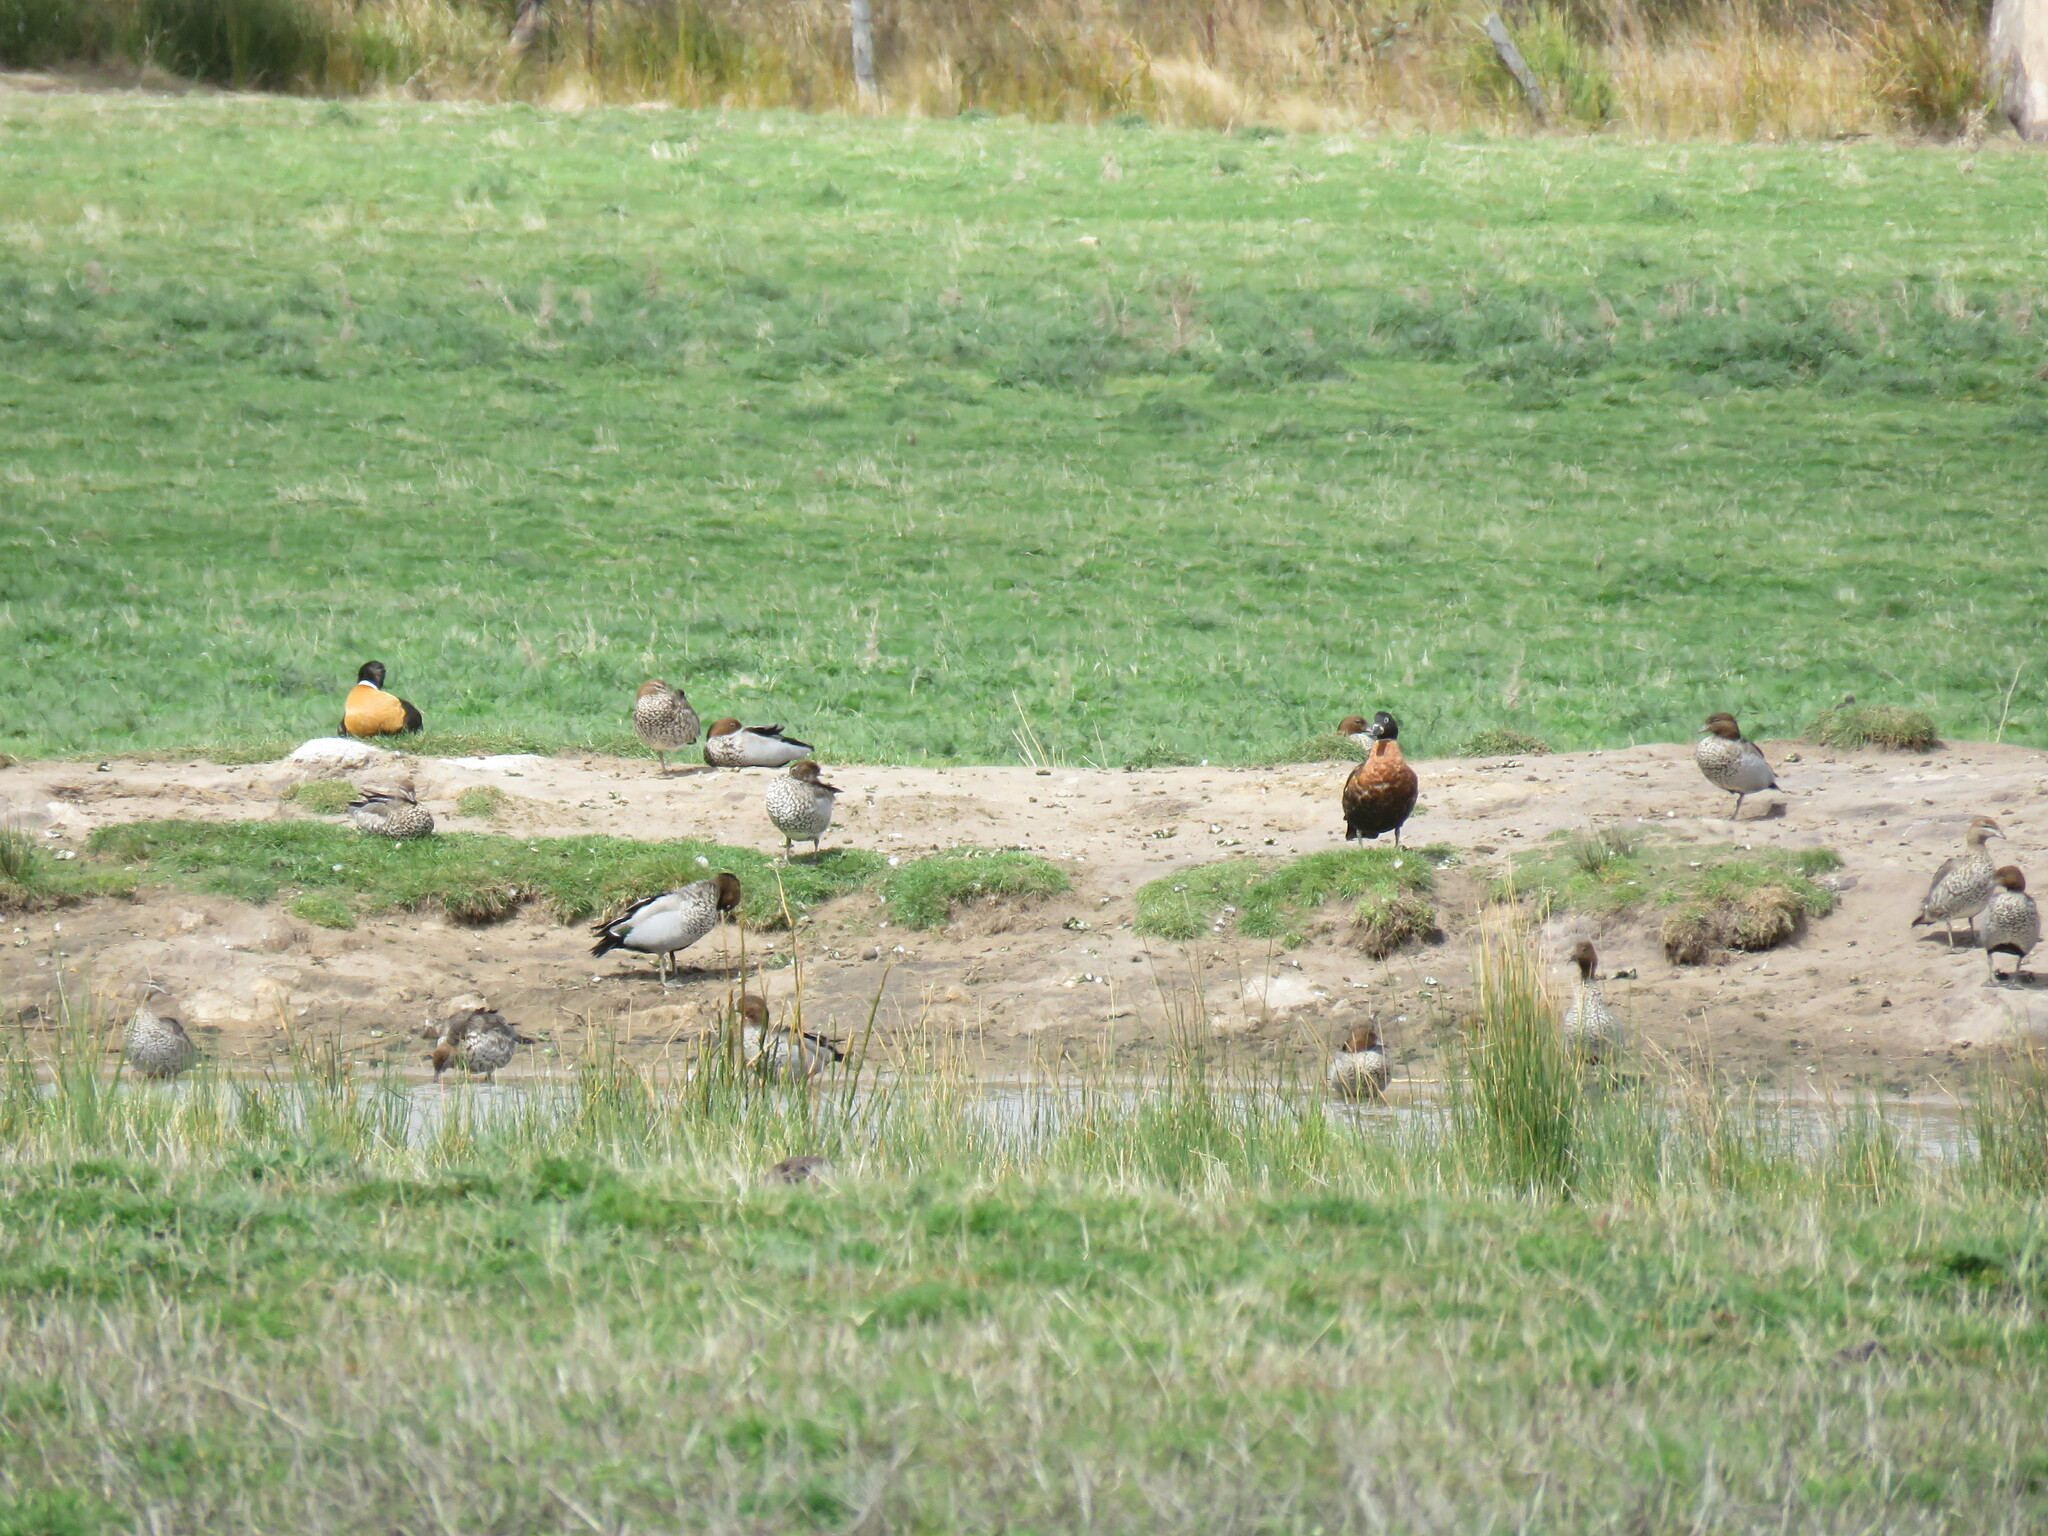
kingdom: Animalia
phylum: Chordata
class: Aves
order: Anseriformes
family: Anatidae
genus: Tadorna
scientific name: Tadorna tadornoides
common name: Australian shelduck
